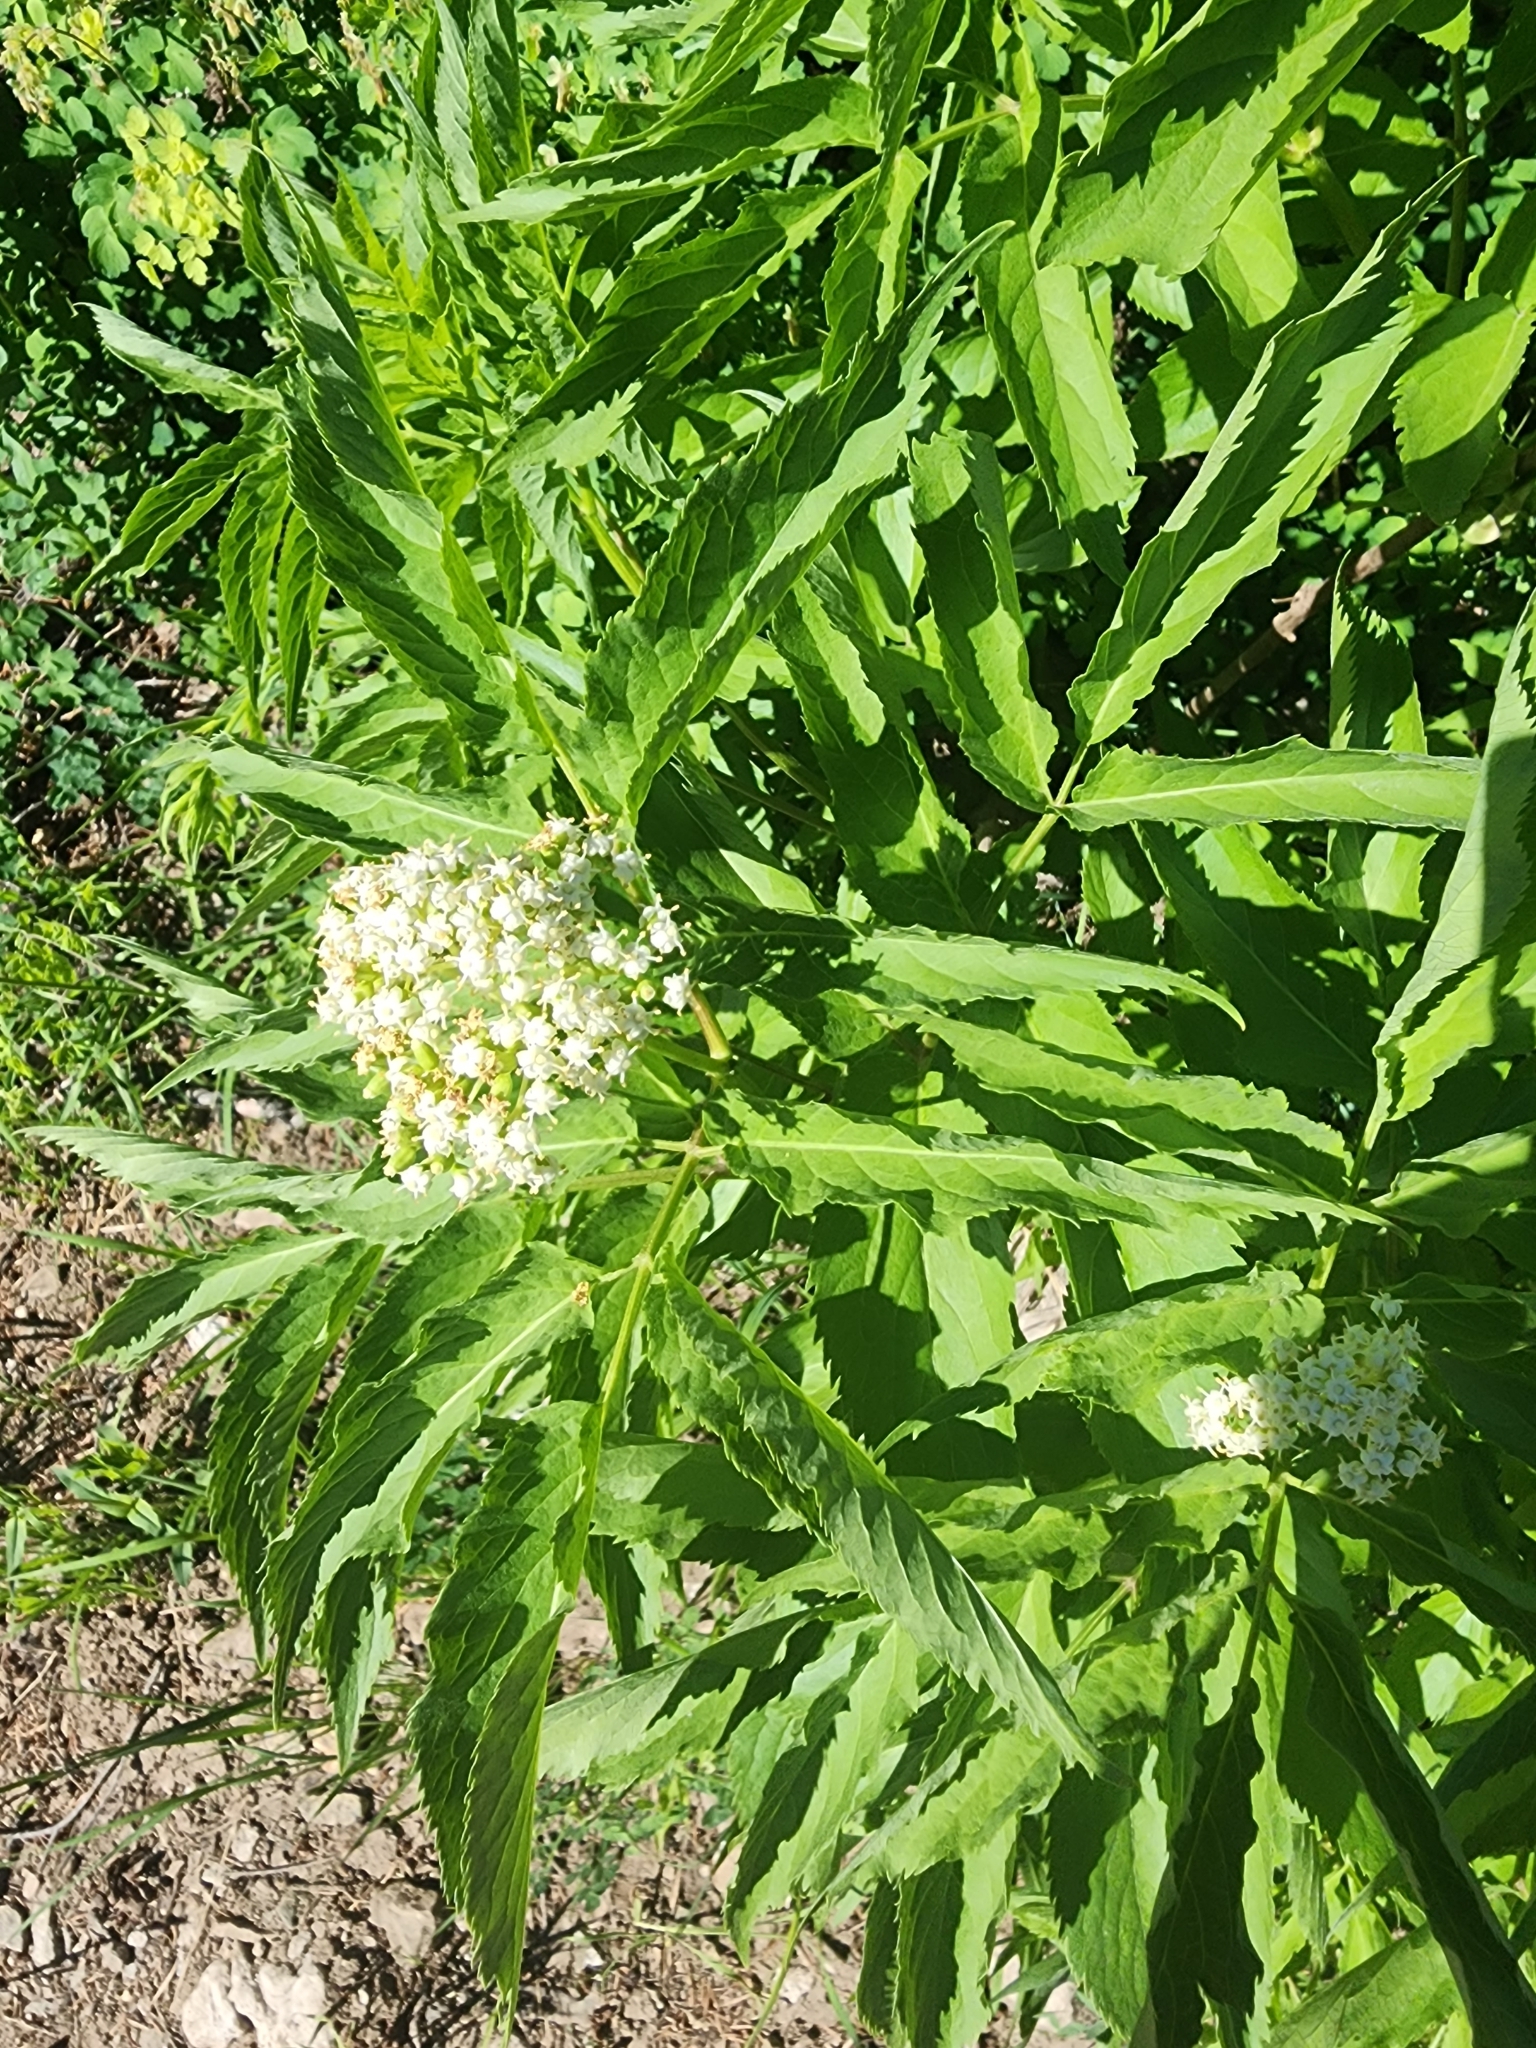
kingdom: Plantae
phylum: Tracheophyta
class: Magnoliopsida
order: Dipsacales
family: Viburnaceae
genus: Sambucus
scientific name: Sambucus racemosa
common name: Red-berried elder
